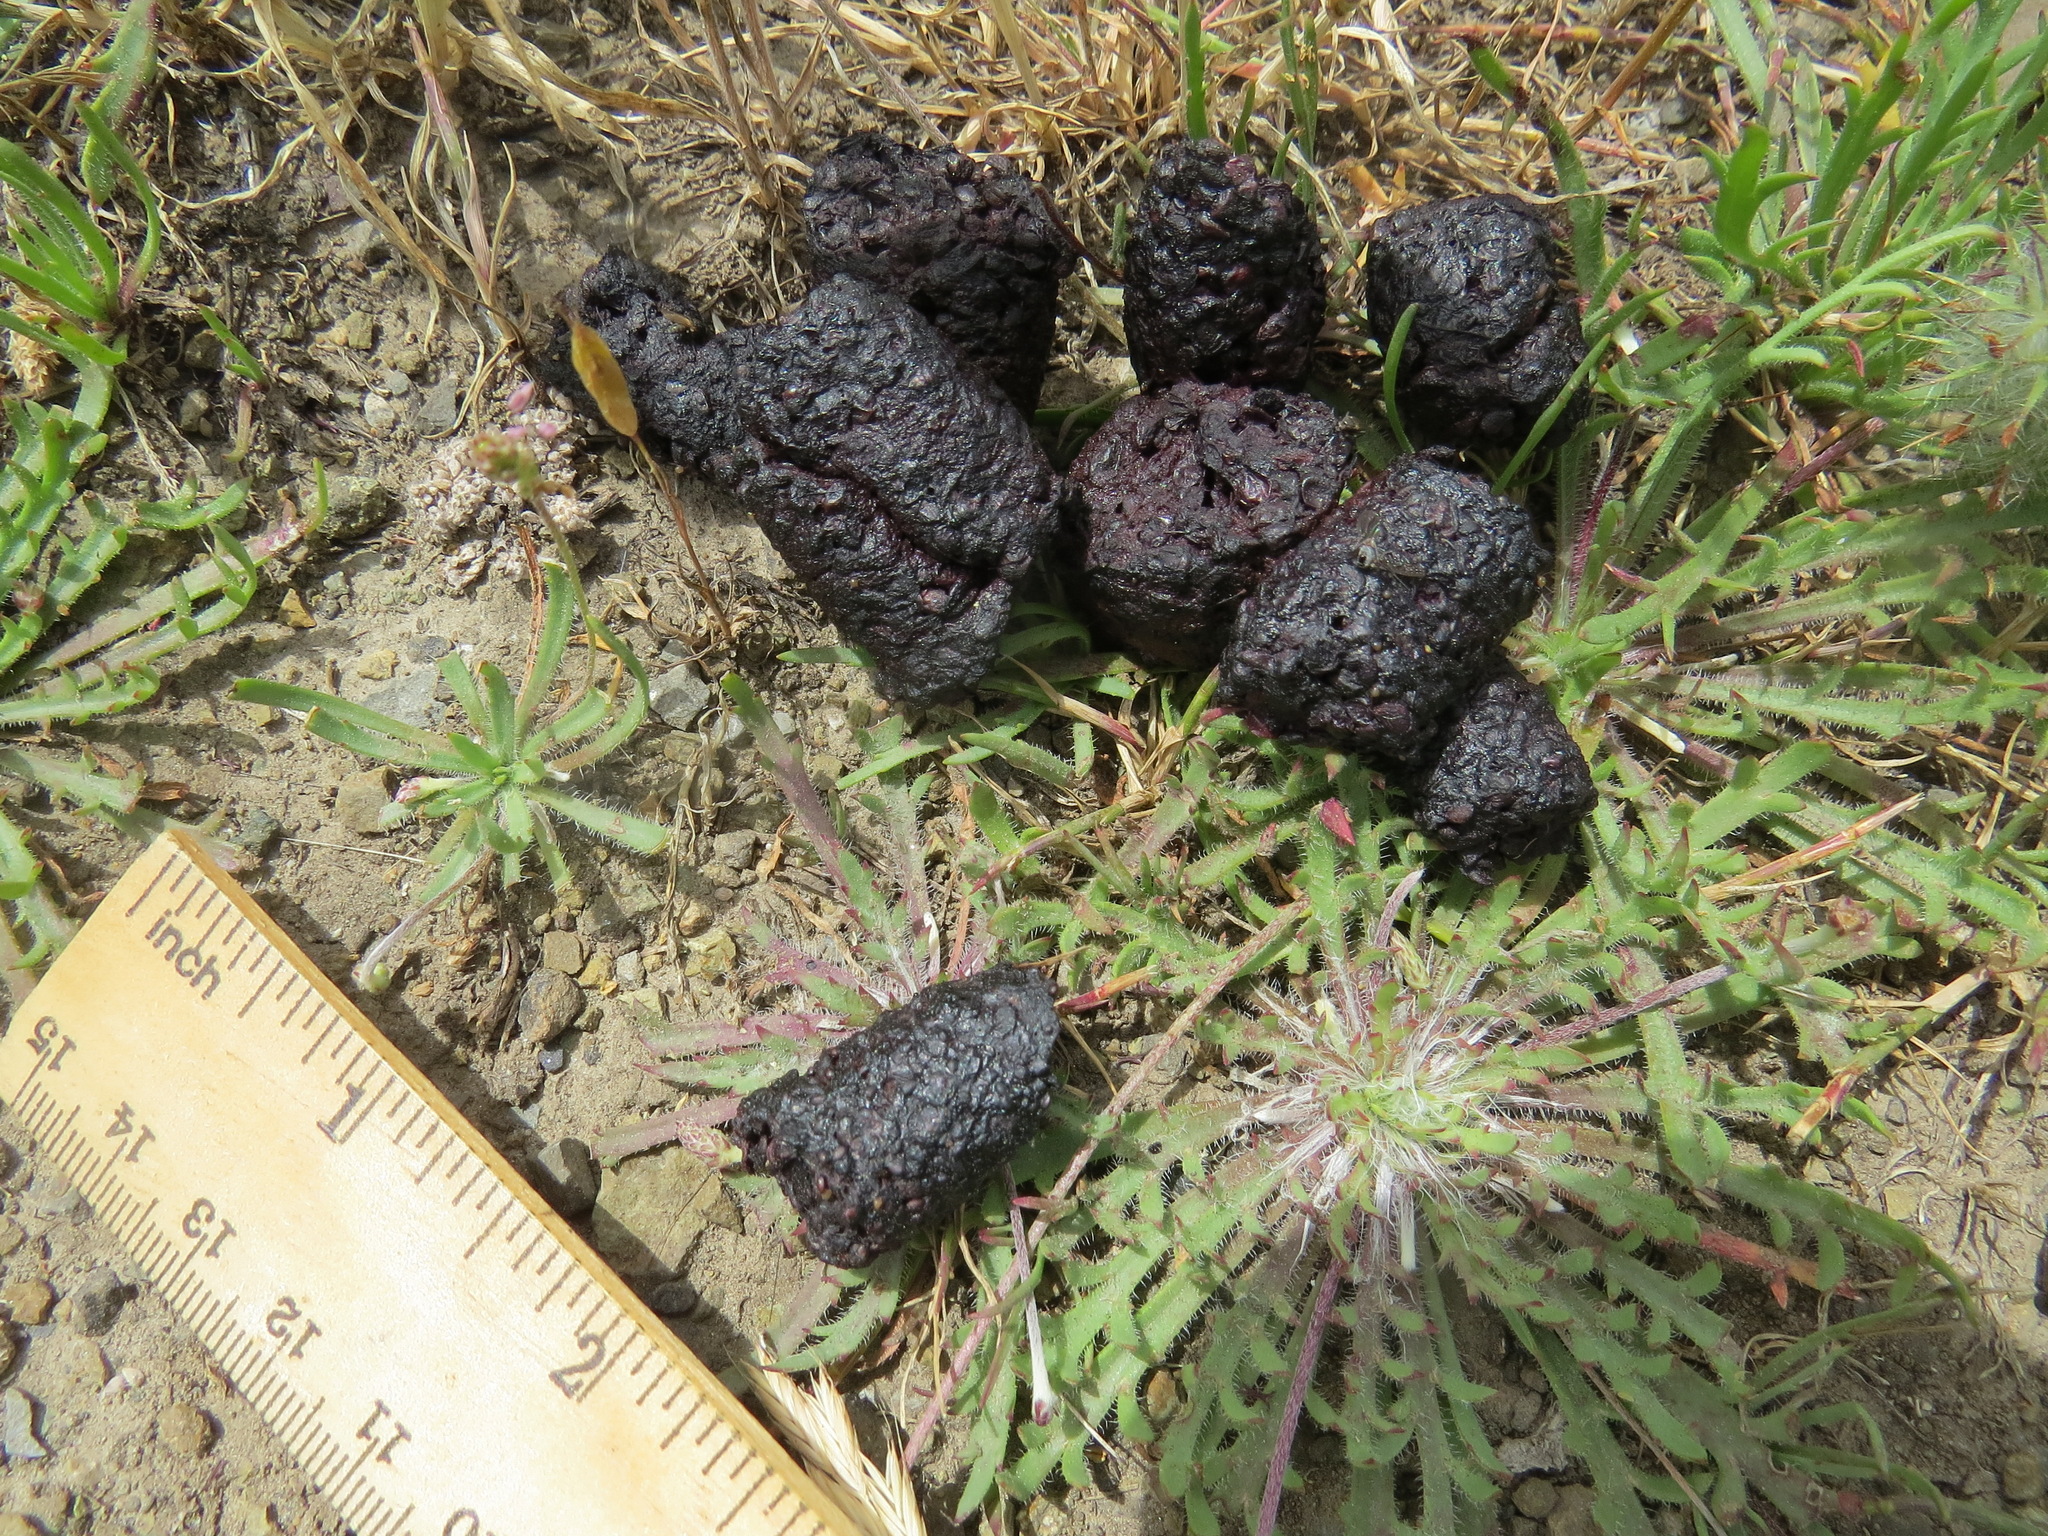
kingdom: Animalia
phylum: Chordata
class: Mammalia
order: Carnivora
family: Canidae
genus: Urocyon
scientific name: Urocyon cinereoargenteus
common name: Gray fox
